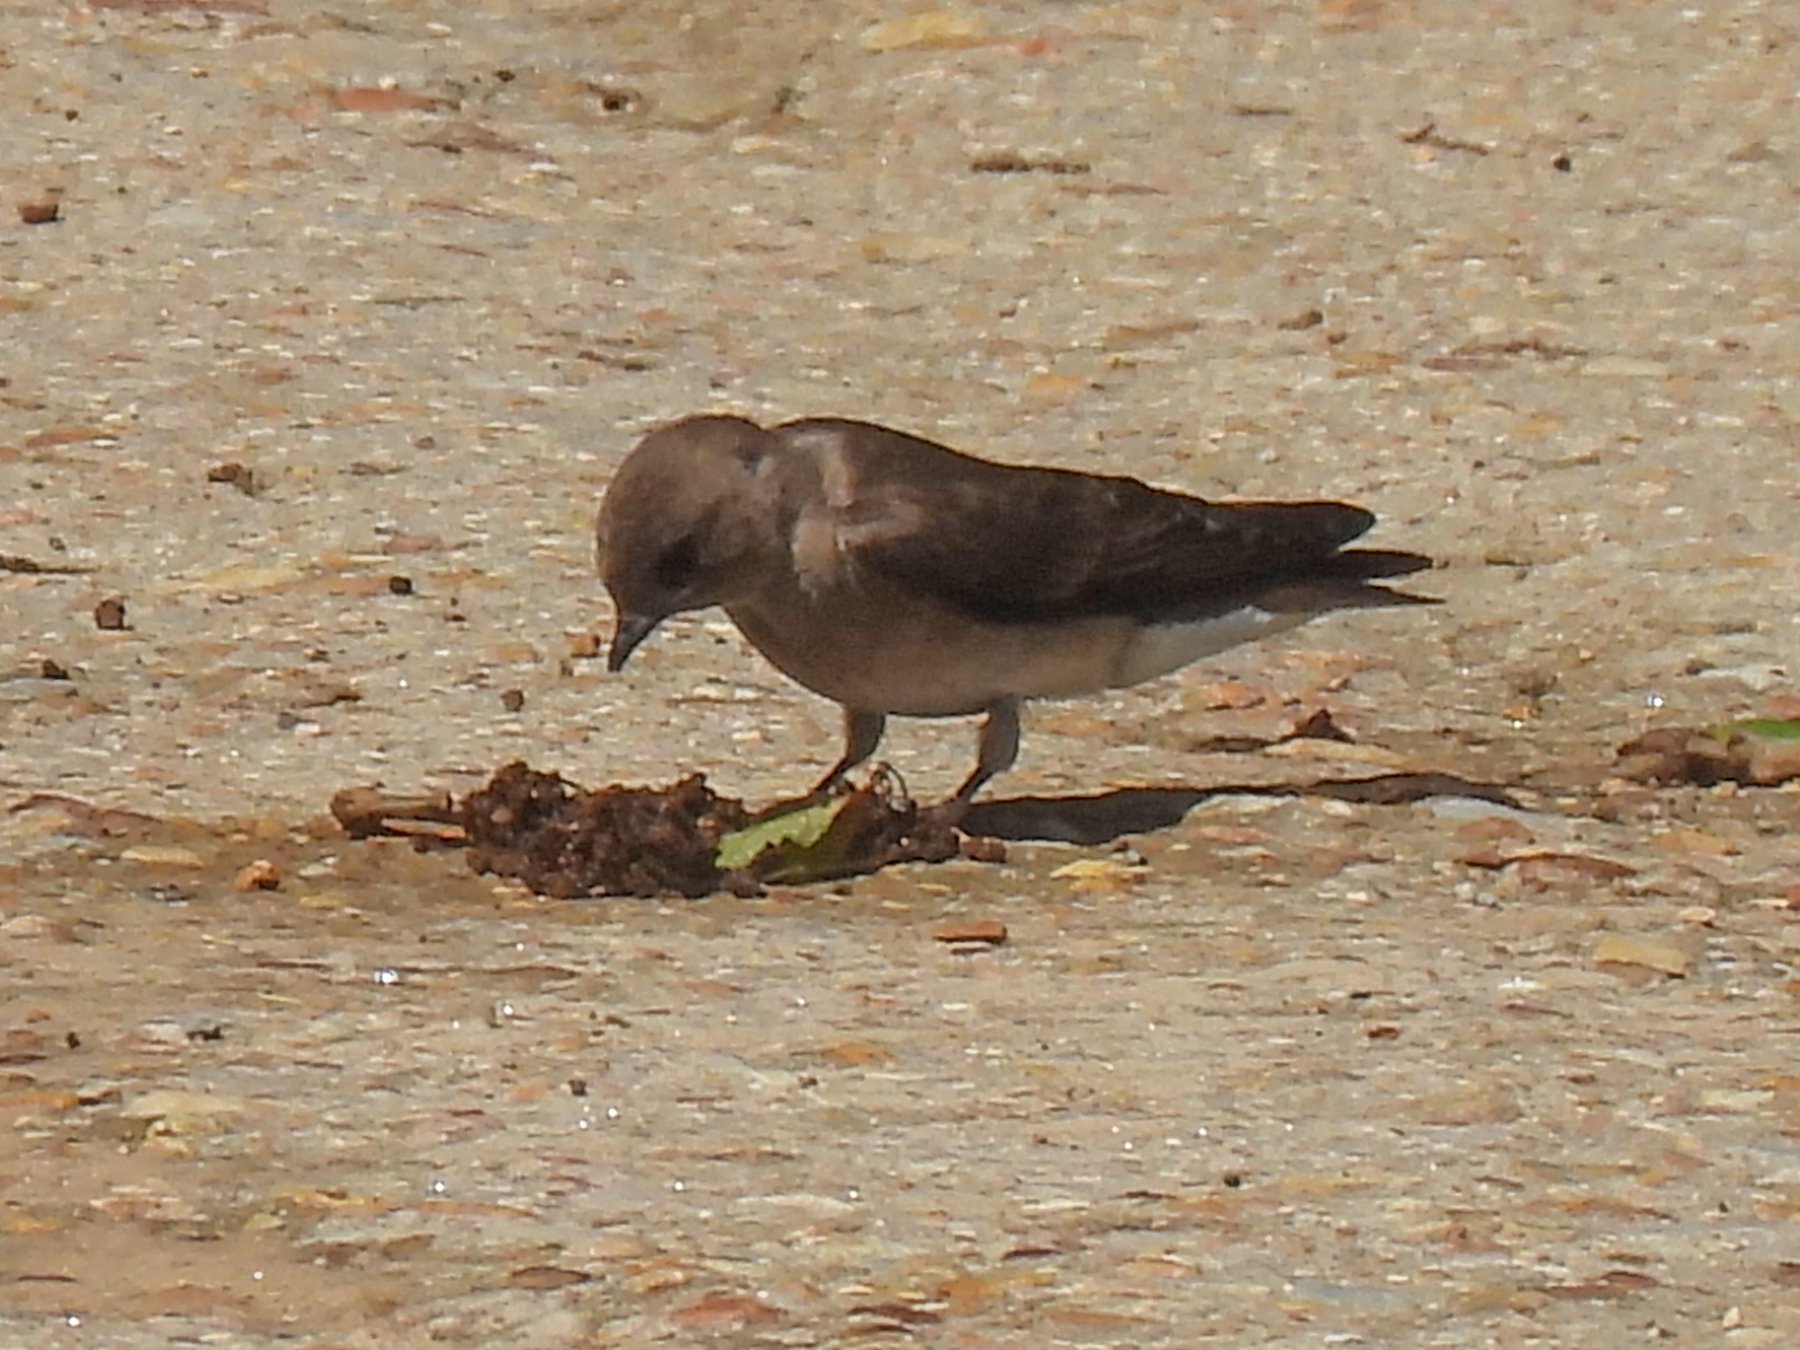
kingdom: Animalia
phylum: Chordata
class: Aves
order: Passeriformes
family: Hirundinidae
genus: Stelgidopteryx
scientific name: Stelgidopteryx serripennis
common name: Northern rough-winged swallow
